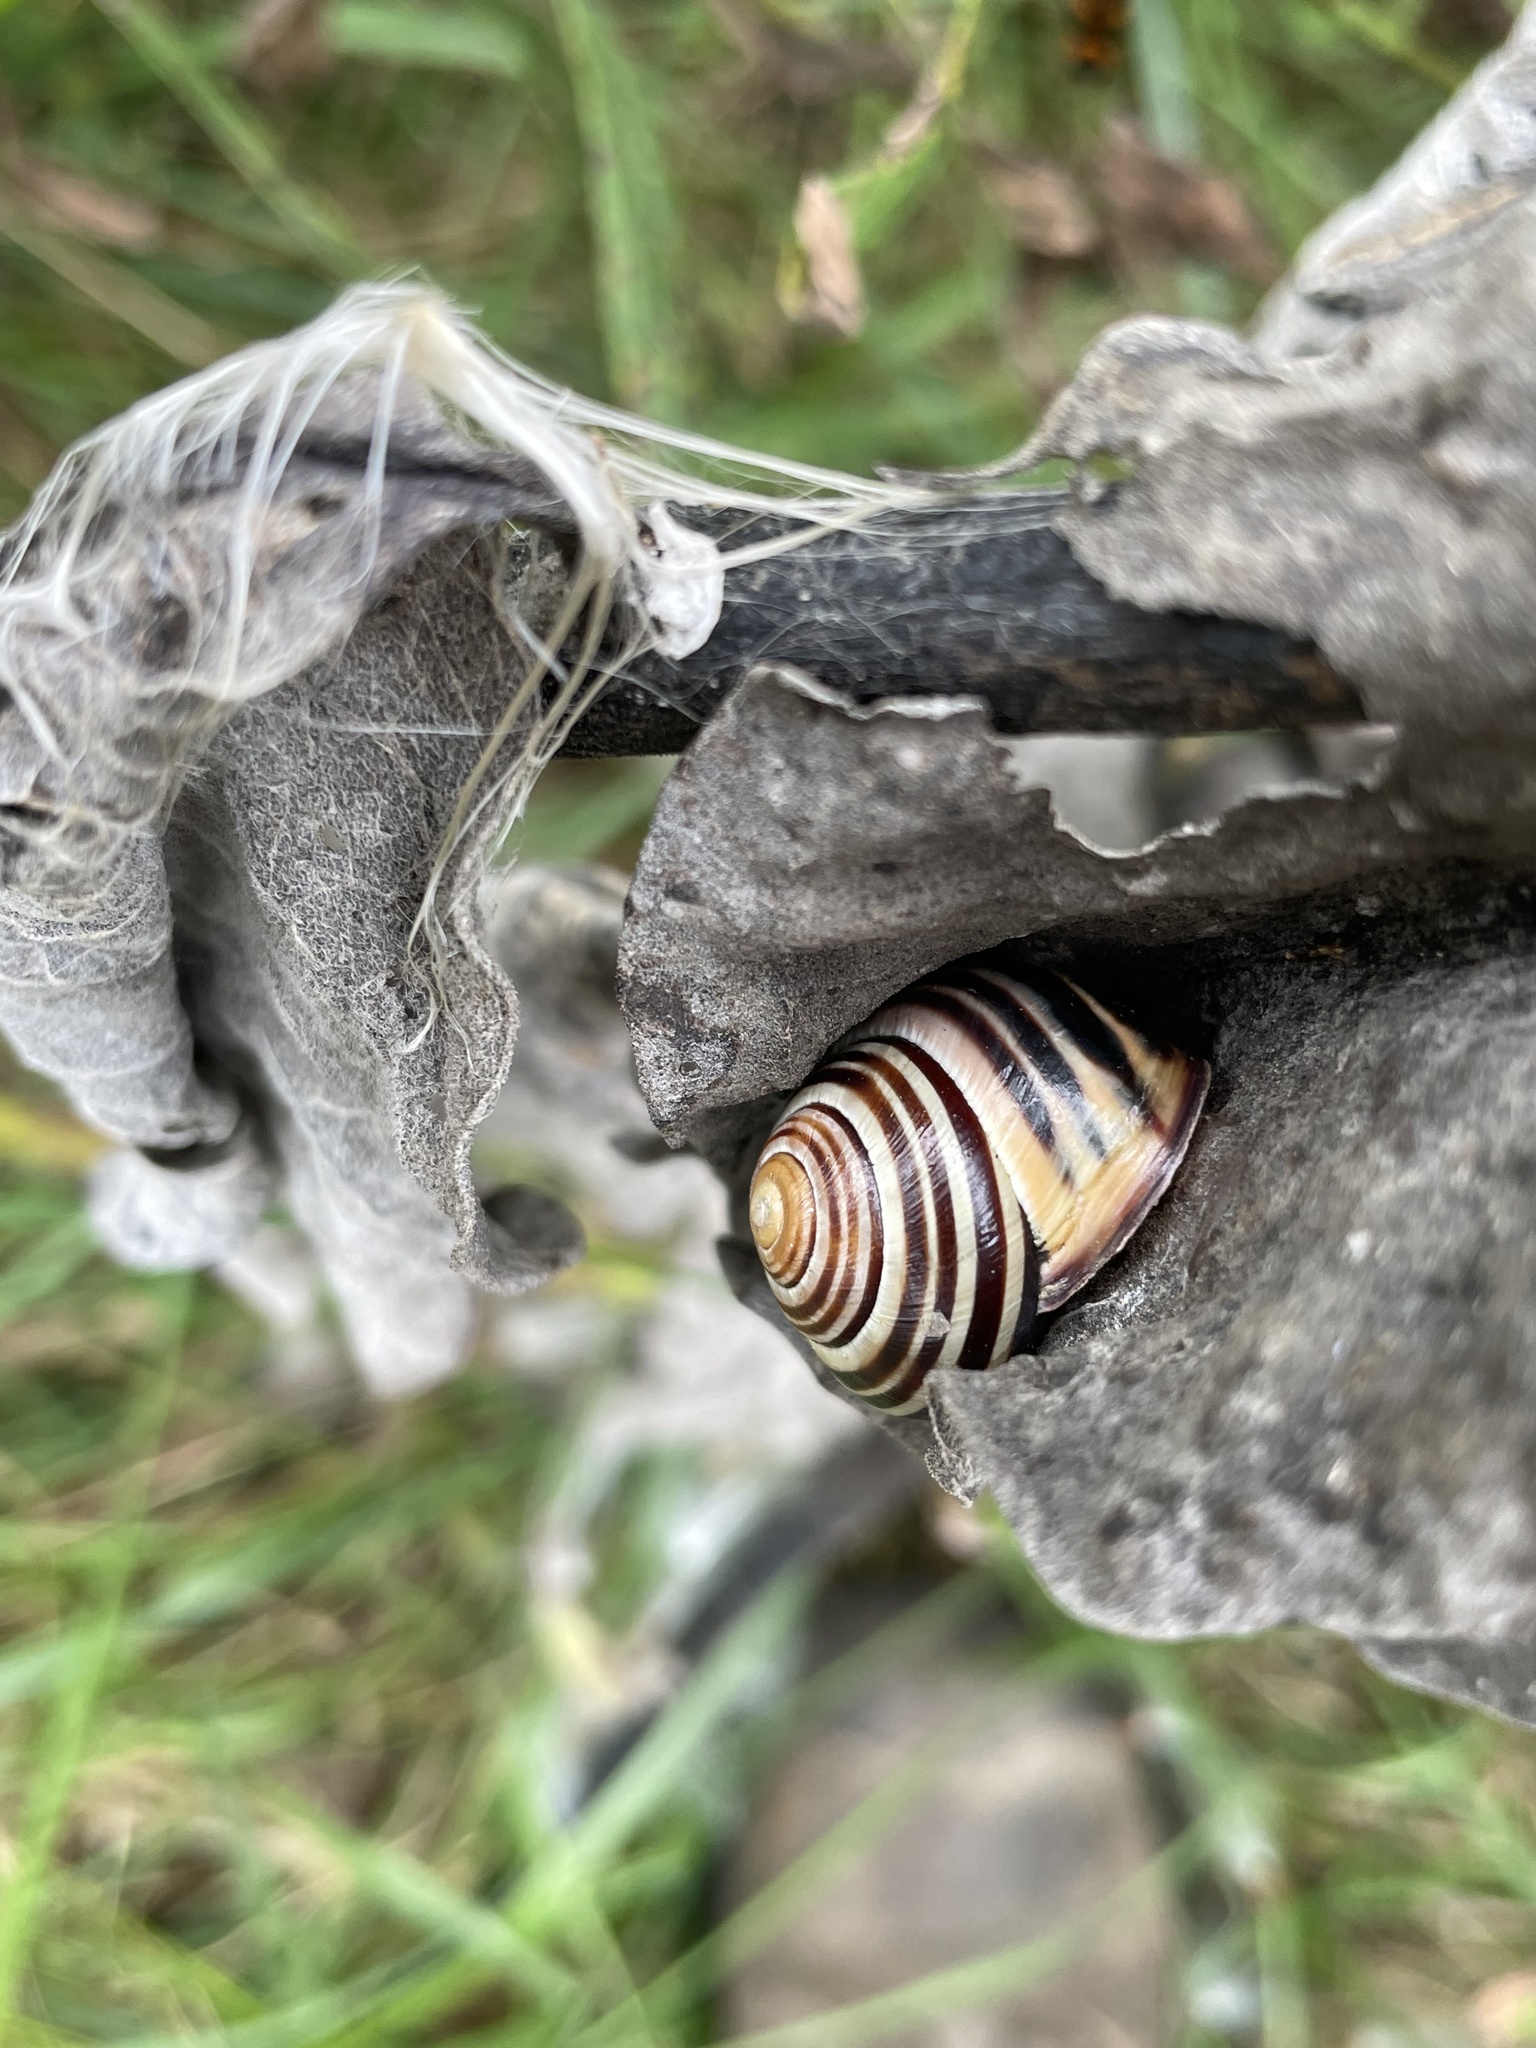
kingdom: Animalia
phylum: Mollusca
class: Gastropoda
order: Stylommatophora
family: Helicidae
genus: Cepaea
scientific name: Cepaea nemoralis
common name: Grovesnail
